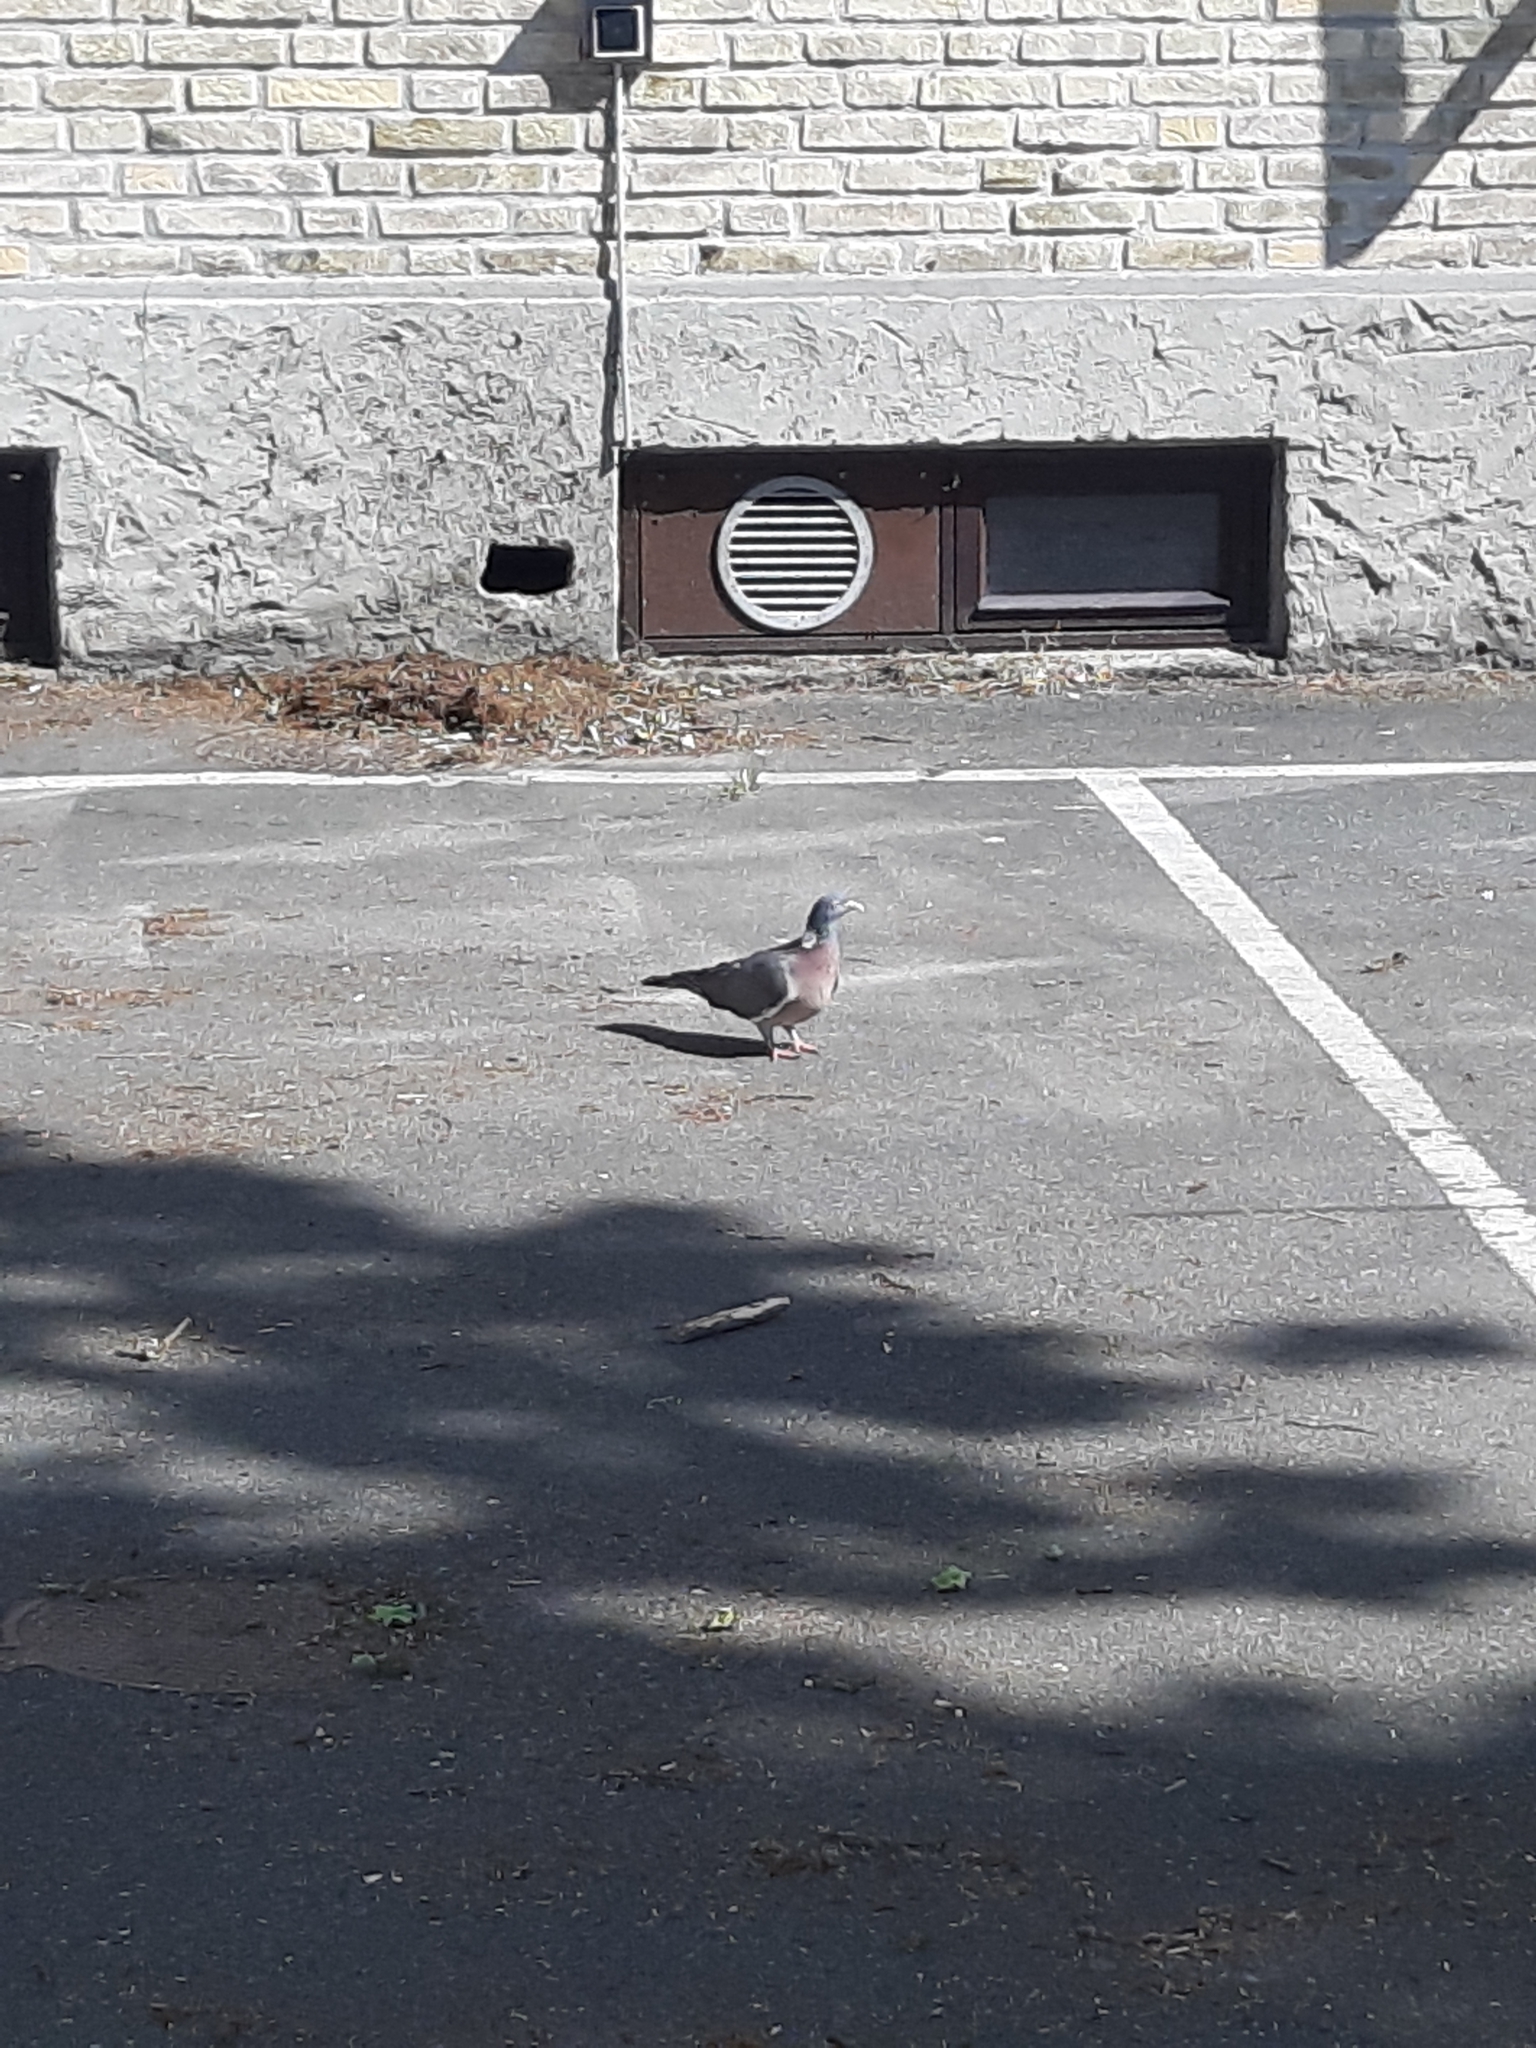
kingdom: Animalia
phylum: Chordata
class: Aves
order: Columbiformes
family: Columbidae
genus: Columba
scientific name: Columba palumbus
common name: Common wood pigeon
